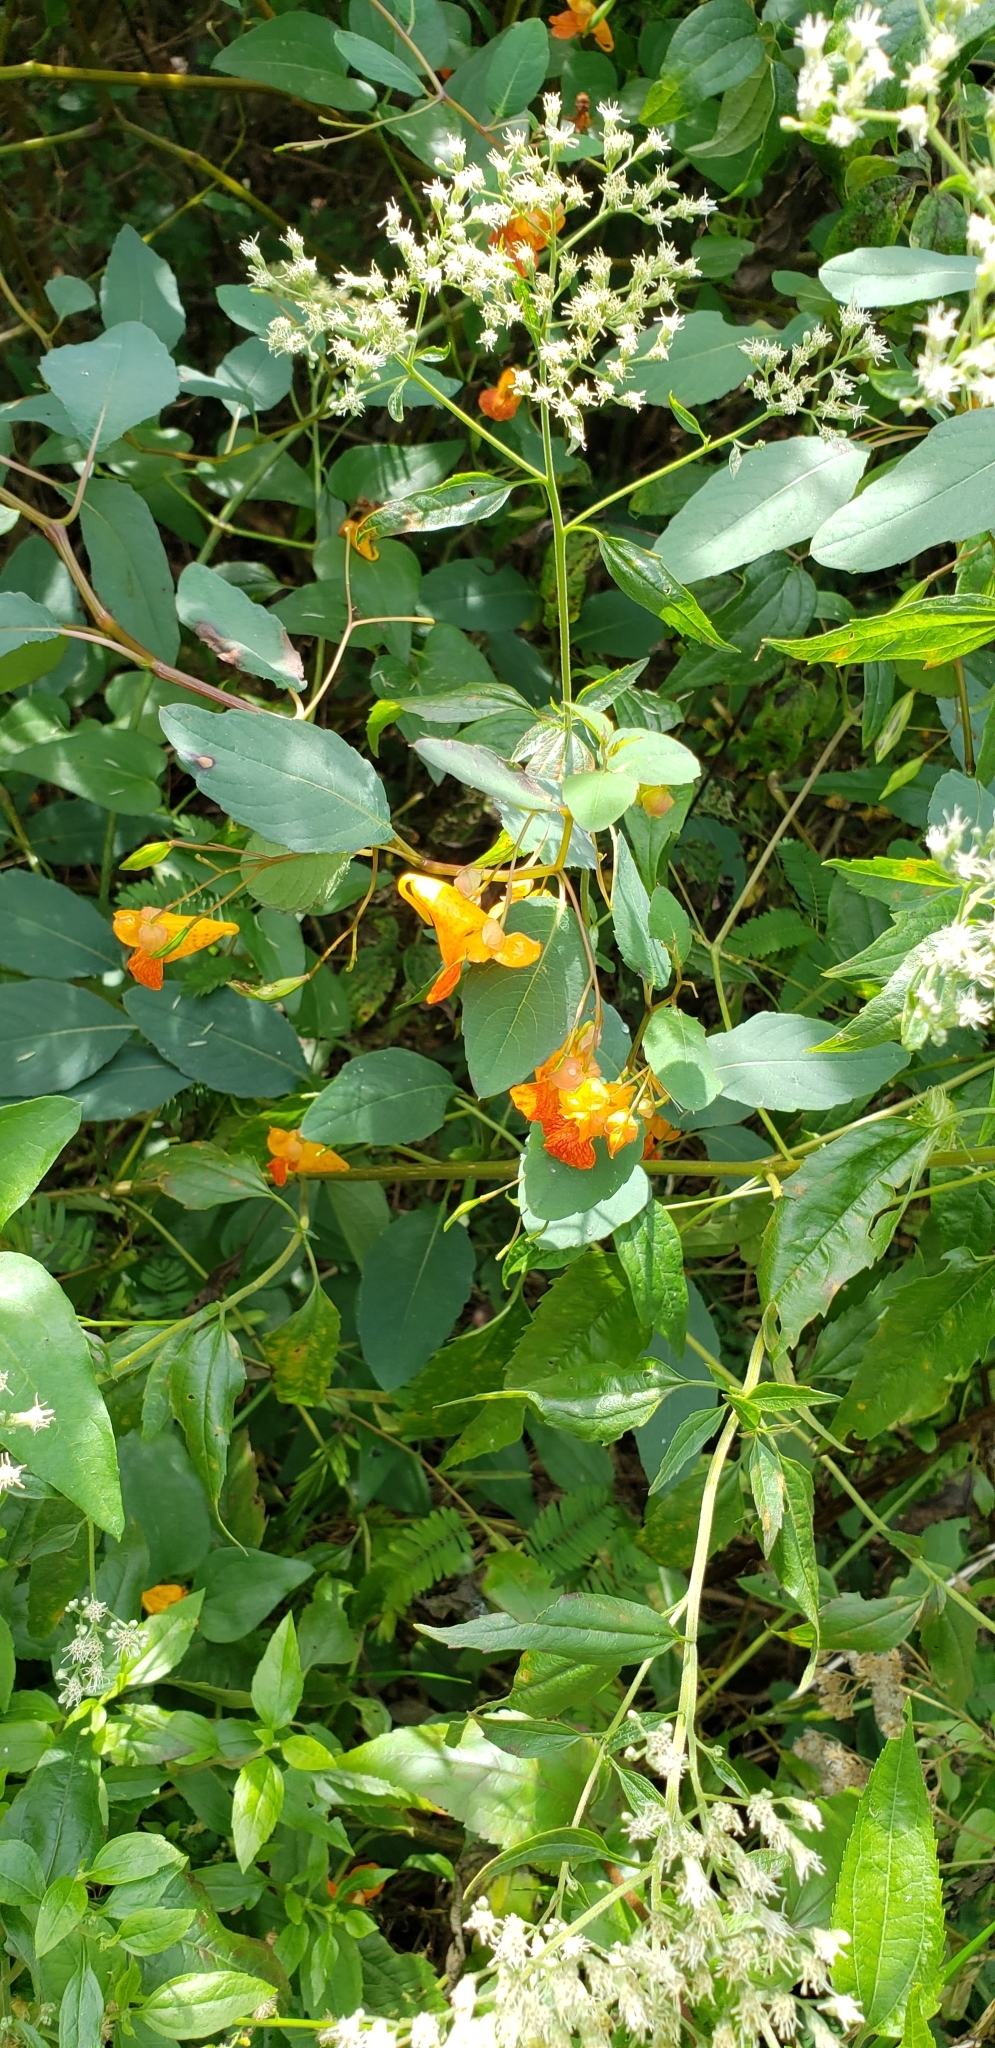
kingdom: Plantae
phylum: Tracheophyta
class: Magnoliopsida
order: Ericales
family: Balsaminaceae
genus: Impatiens
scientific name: Impatiens capensis
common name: Orange balsam
